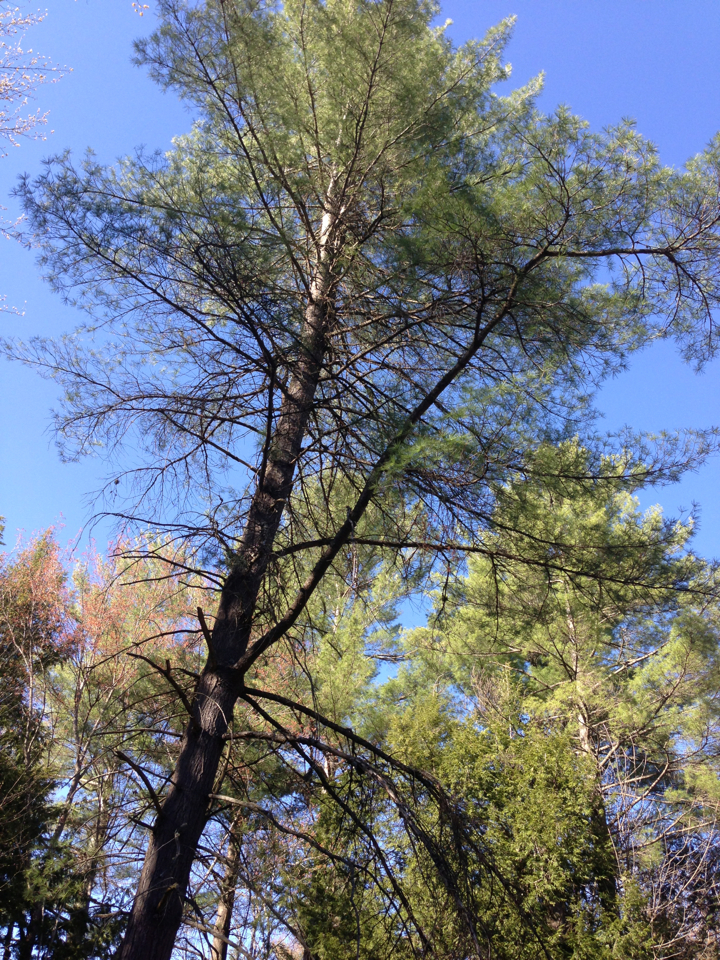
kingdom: Plantae
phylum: Tracheophyta
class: Pinopsida
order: Pinales
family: Pinaceae
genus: Pinus
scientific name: Pinus strobus
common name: Weymouth pine
